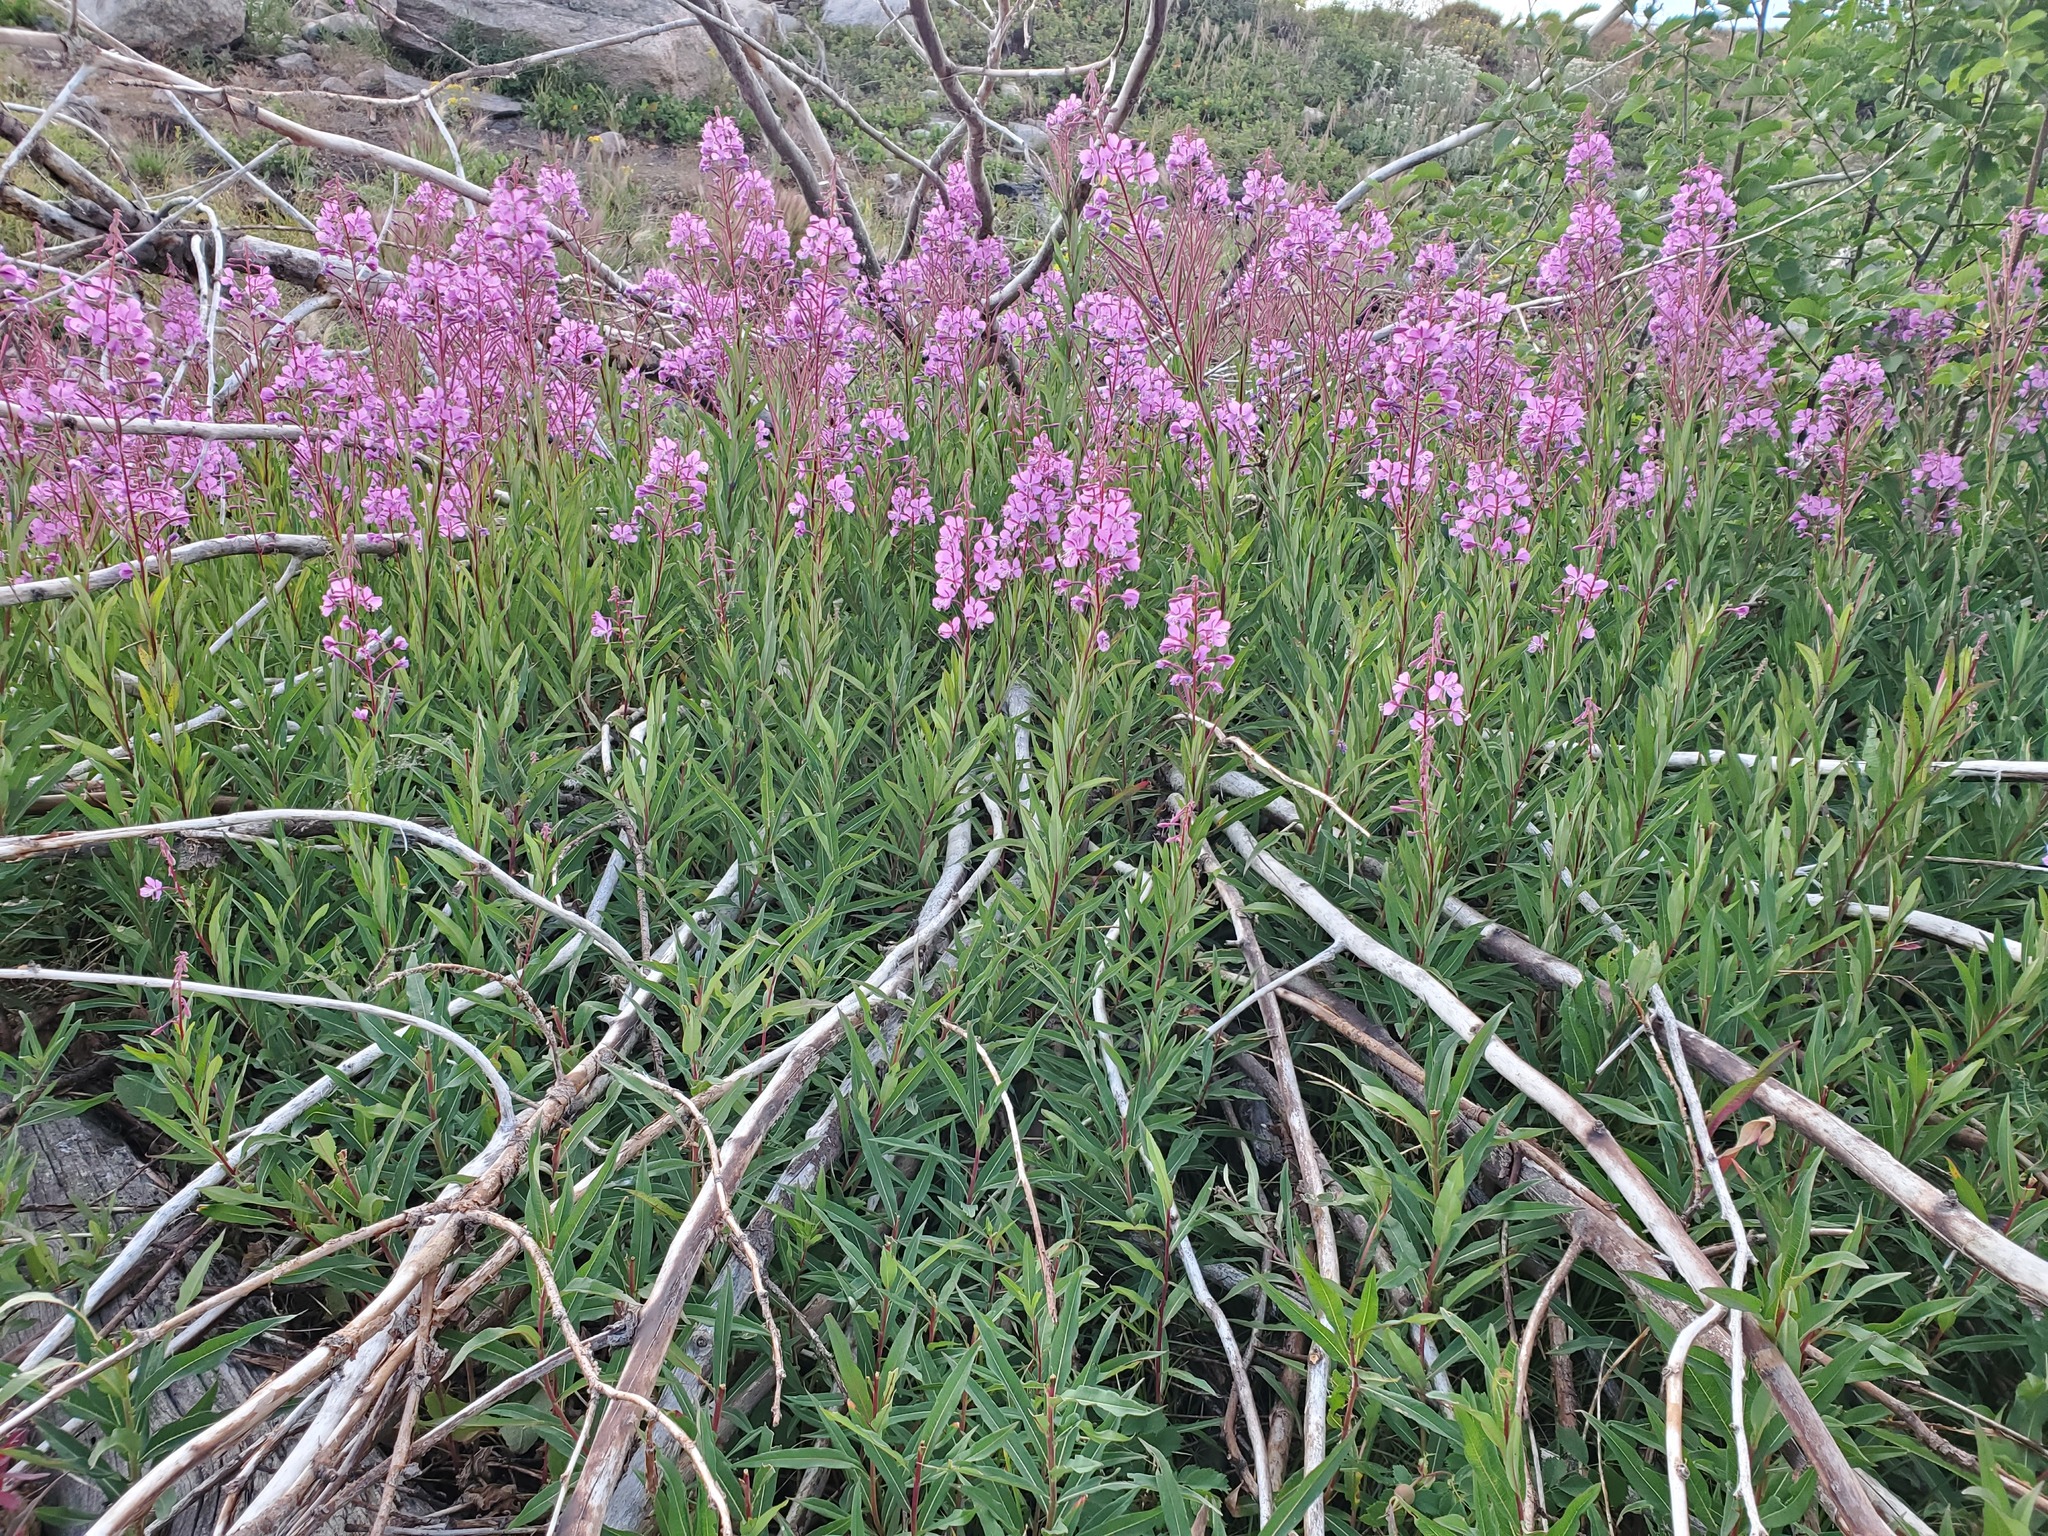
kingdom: Plantae
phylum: Tracheophyta
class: Magnoliopsida
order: Myrtales
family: Onagraceae
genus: Chamaenerion
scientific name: Chamaenerion angustifolium
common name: Fireweed
